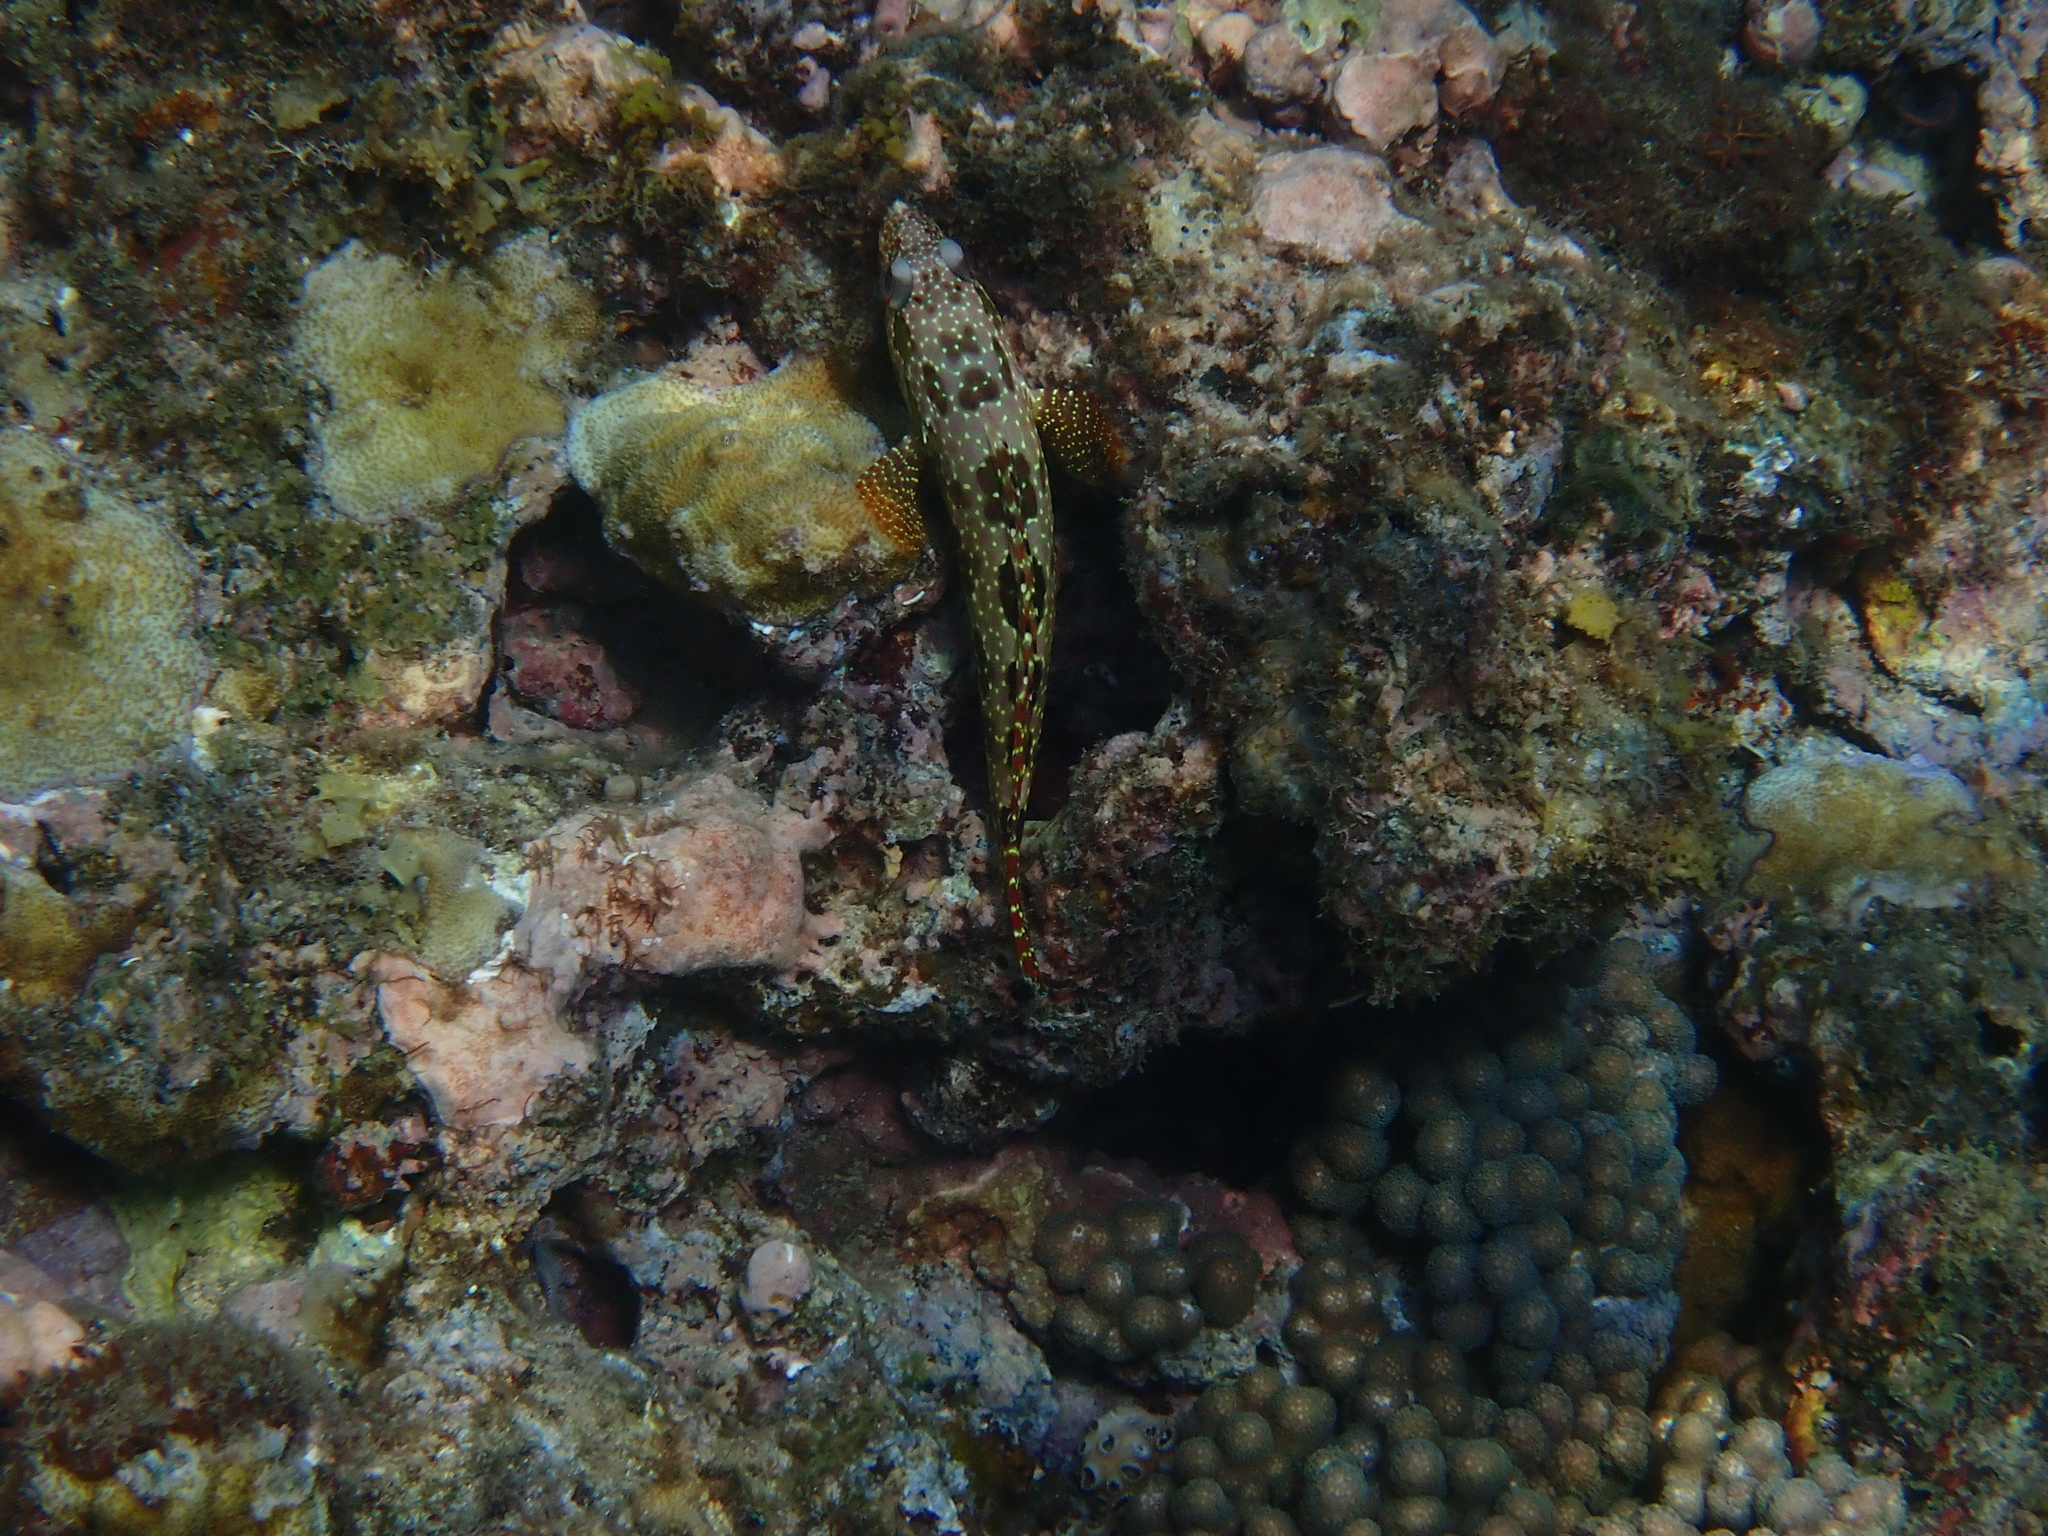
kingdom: Animalia
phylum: Chordata
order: Perciformes
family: Serranidae
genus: Epinephelus
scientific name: Epinephelus hexagonatus
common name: Hexagon grouper
